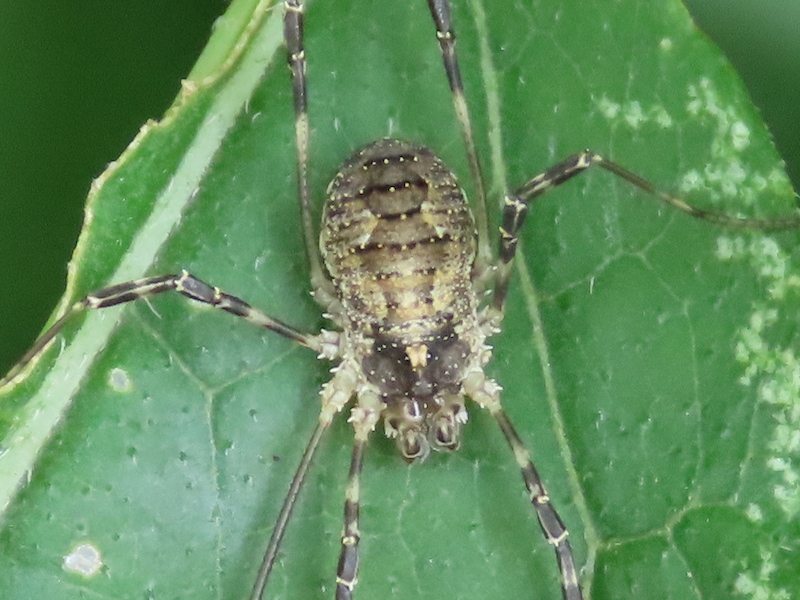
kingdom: Animalia
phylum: Arthropoda
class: Arachnida
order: Opiliones
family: Phalangiidae
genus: Odiellus
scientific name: Odiellus pictus
